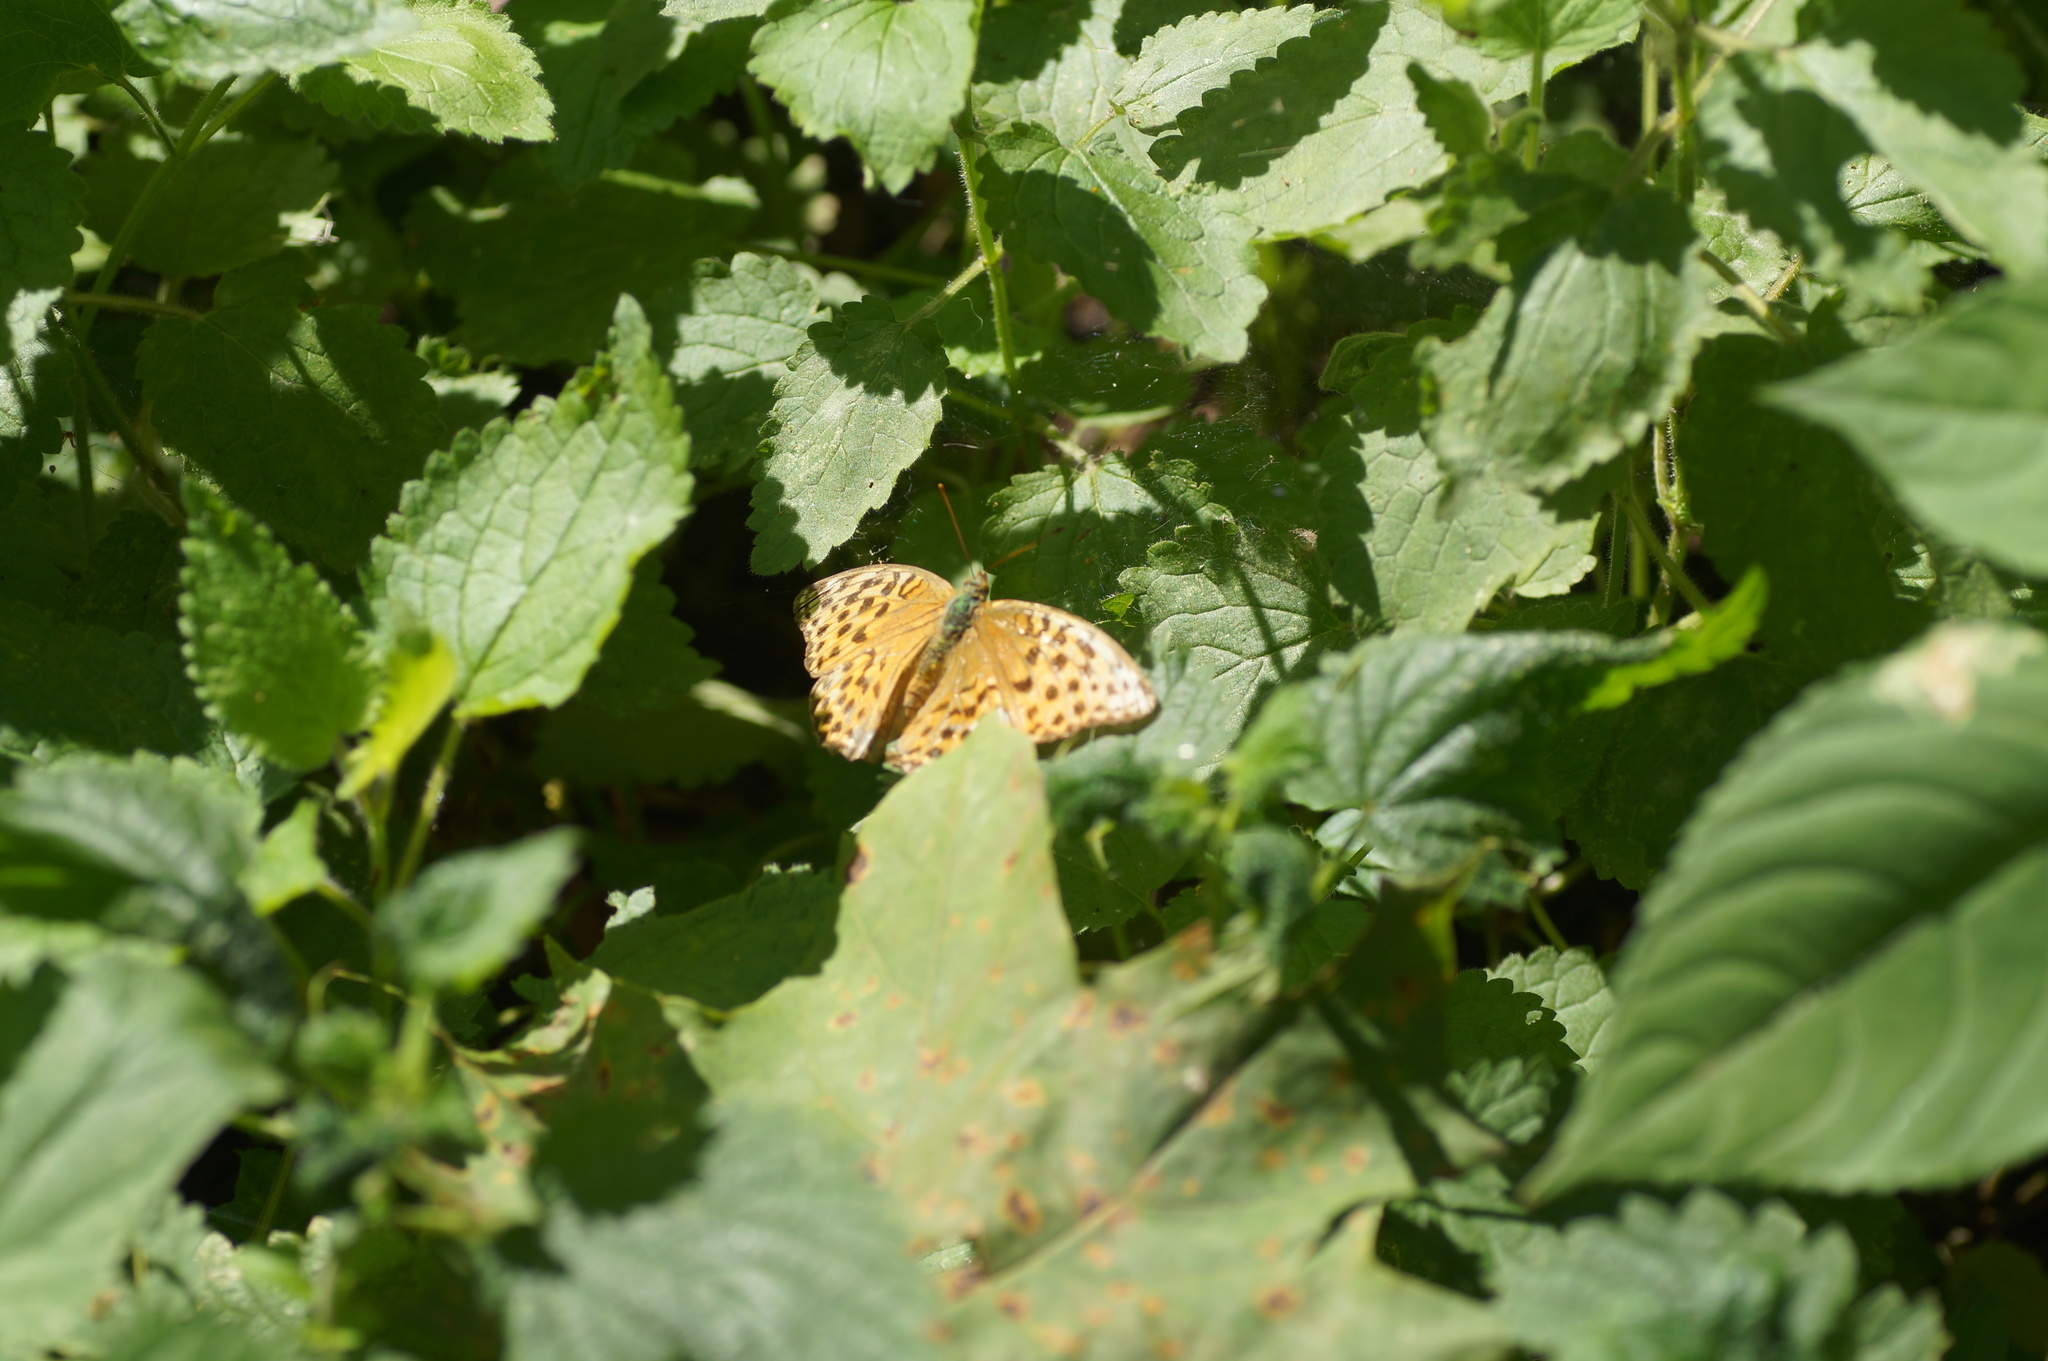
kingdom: Animalia
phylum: Arthropoda
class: Insecta
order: Lepidoptera
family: Nymphalidae
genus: Argynnis
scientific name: Argynnis paphia
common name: Silver-washed fritillary
